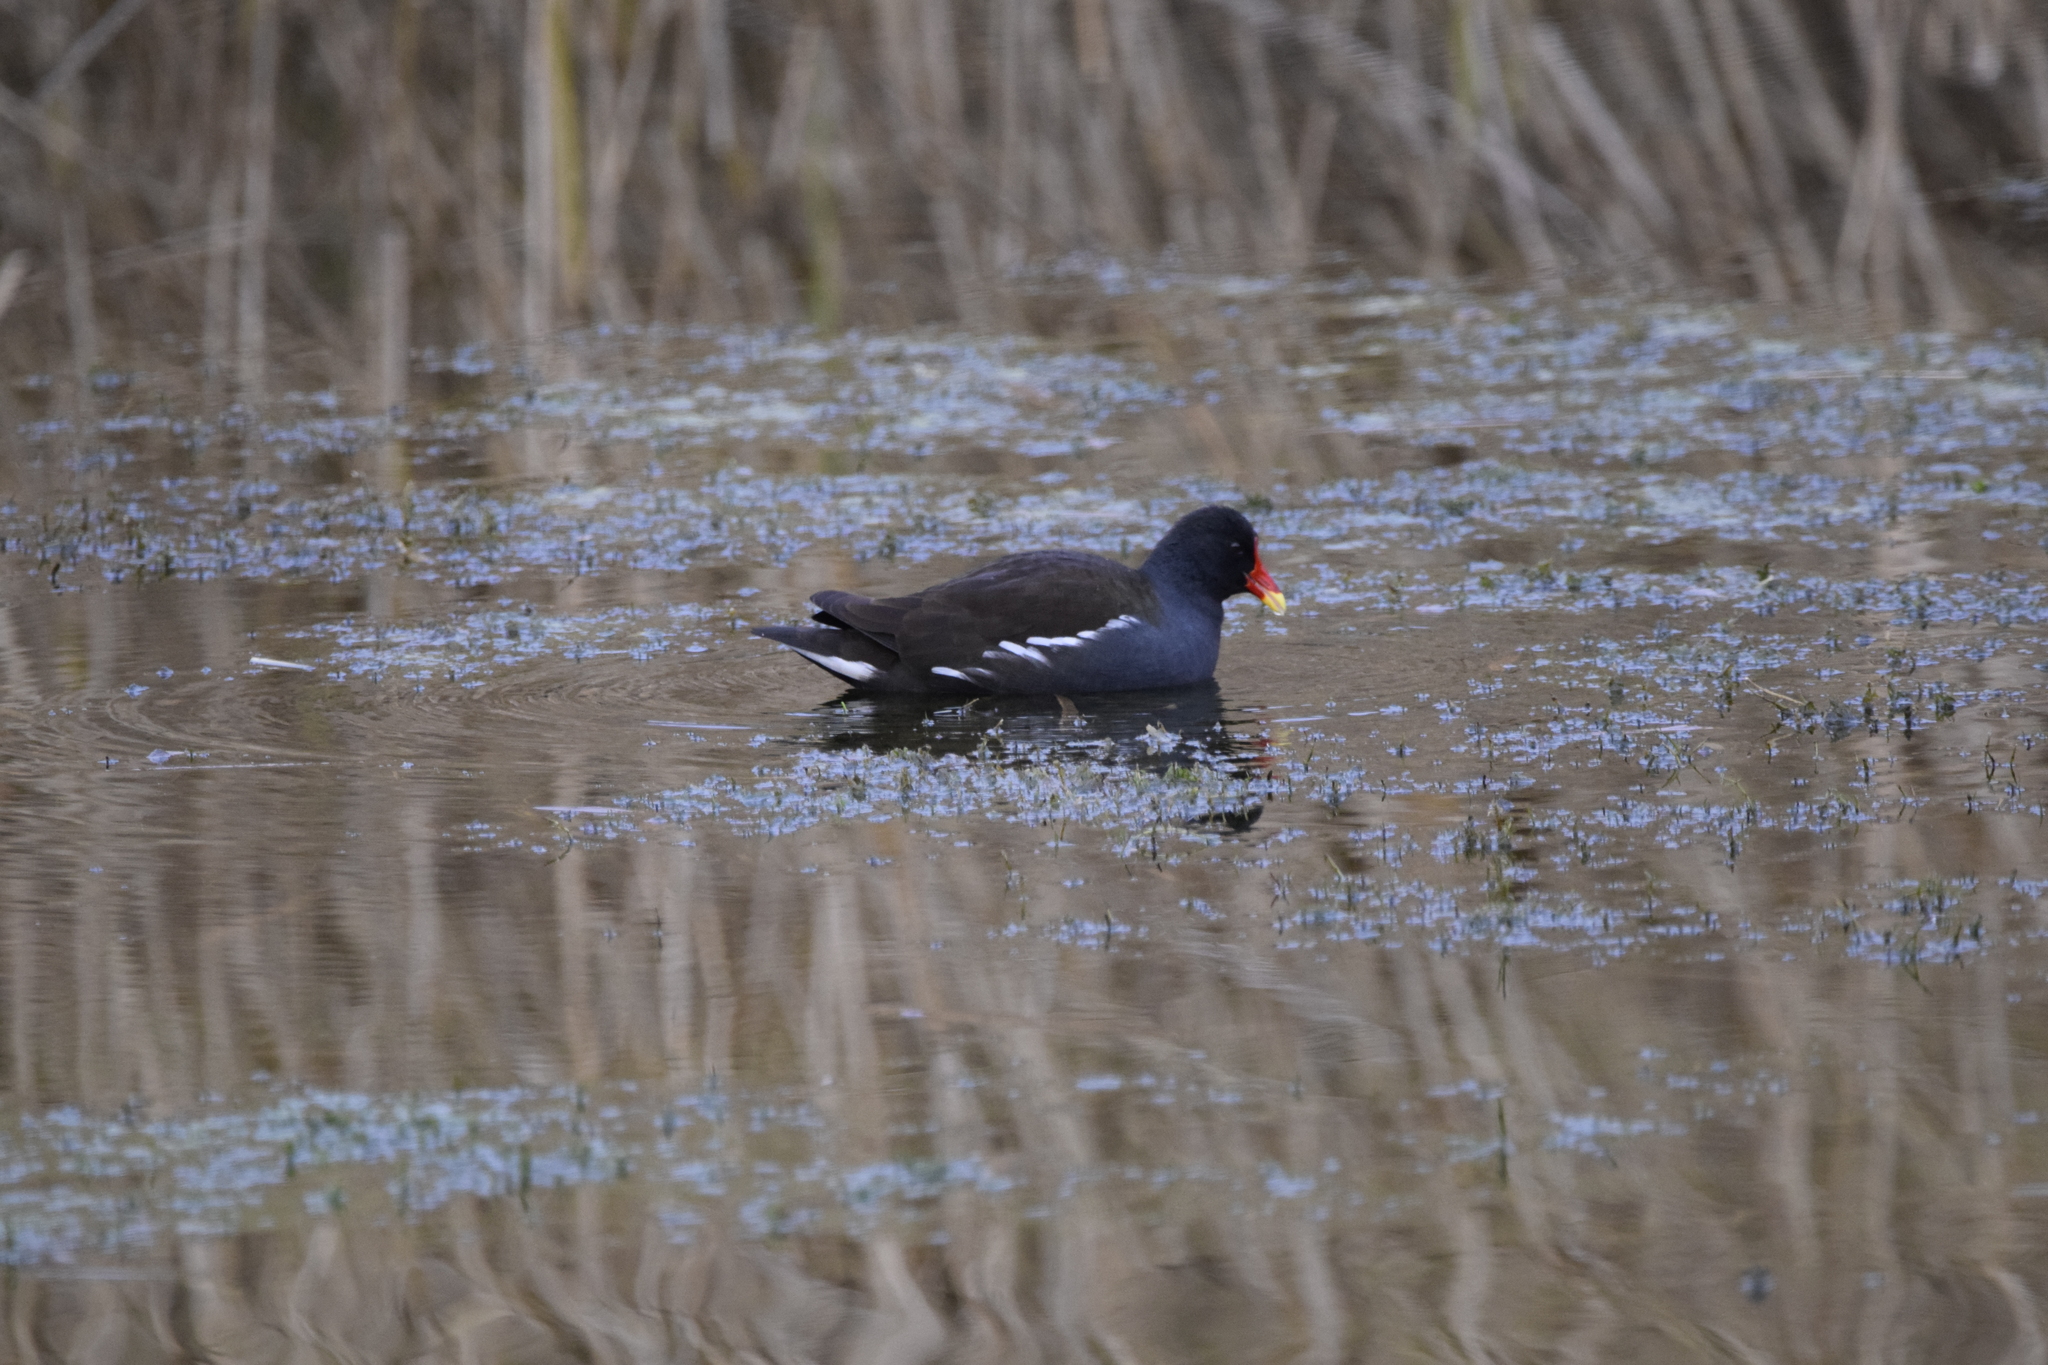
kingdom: Animalia
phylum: Chordata
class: Aves
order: Gruiformes
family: Rallidae
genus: Gallinula
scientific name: Gallinula chloropus
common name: Common moorhen
